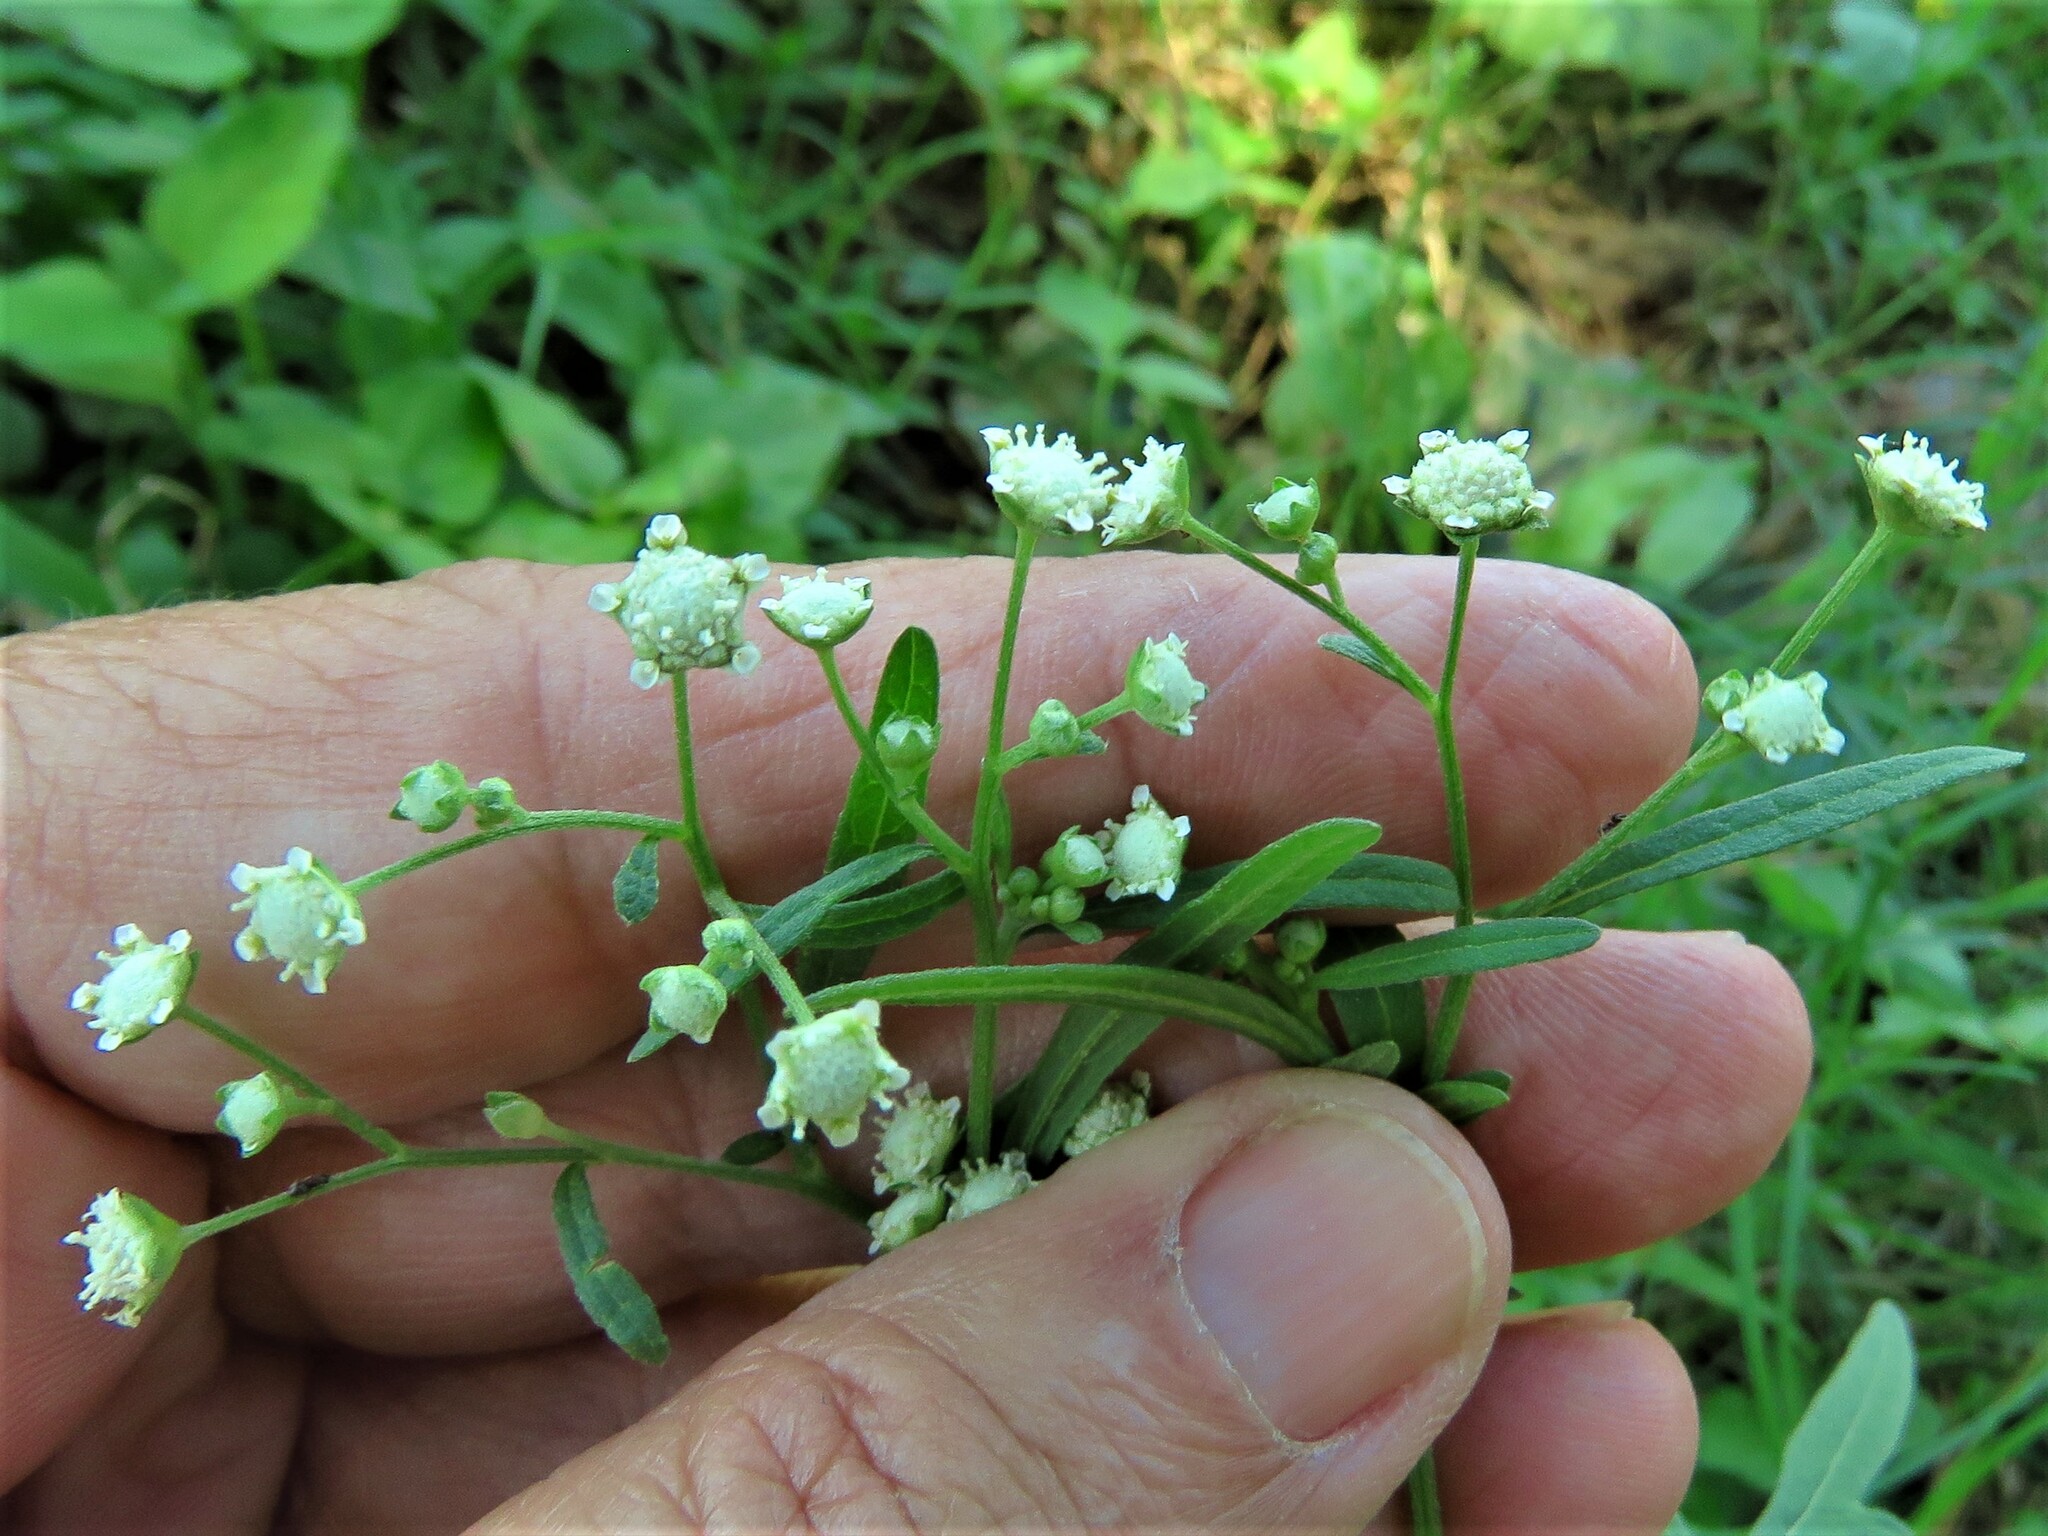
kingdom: Plantae
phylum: Tracheophyta
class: Magnoliopsida
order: Asterales
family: Asteraceae
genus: Parthenium
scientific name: Parthenium hysterophorus
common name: Santa maria feverfew
